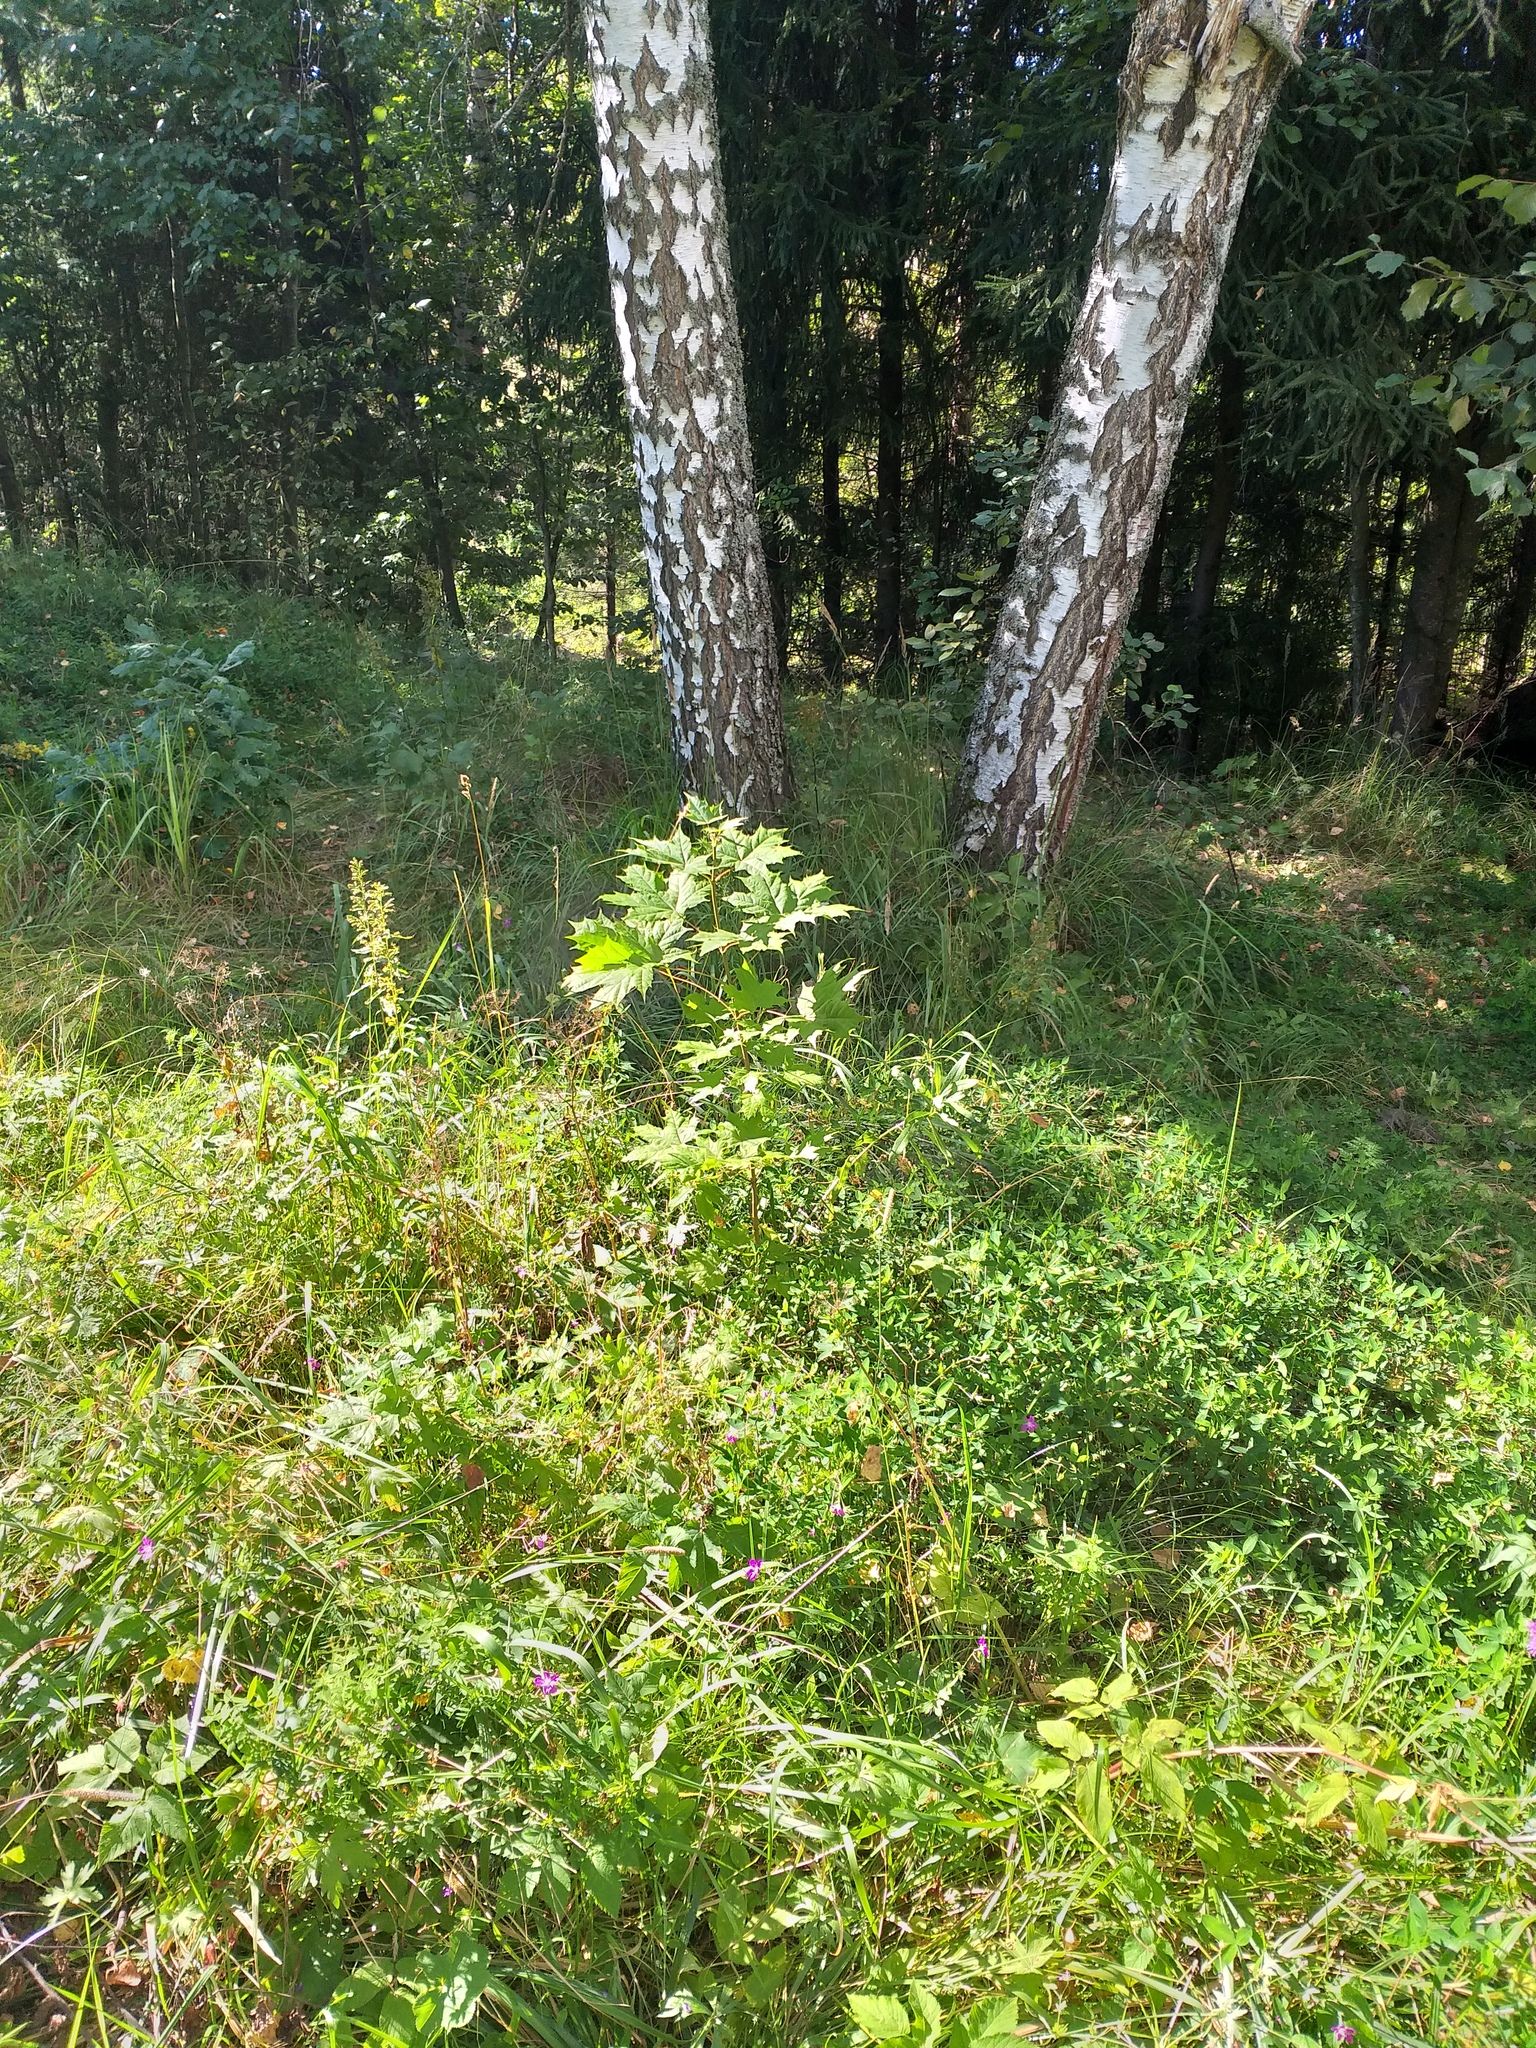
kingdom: Plantae
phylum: Tracheophyta
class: Magnoliopsida
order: Sapindales
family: Sapindaceae
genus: Acer
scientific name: Acer platanoides
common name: Norway maple
